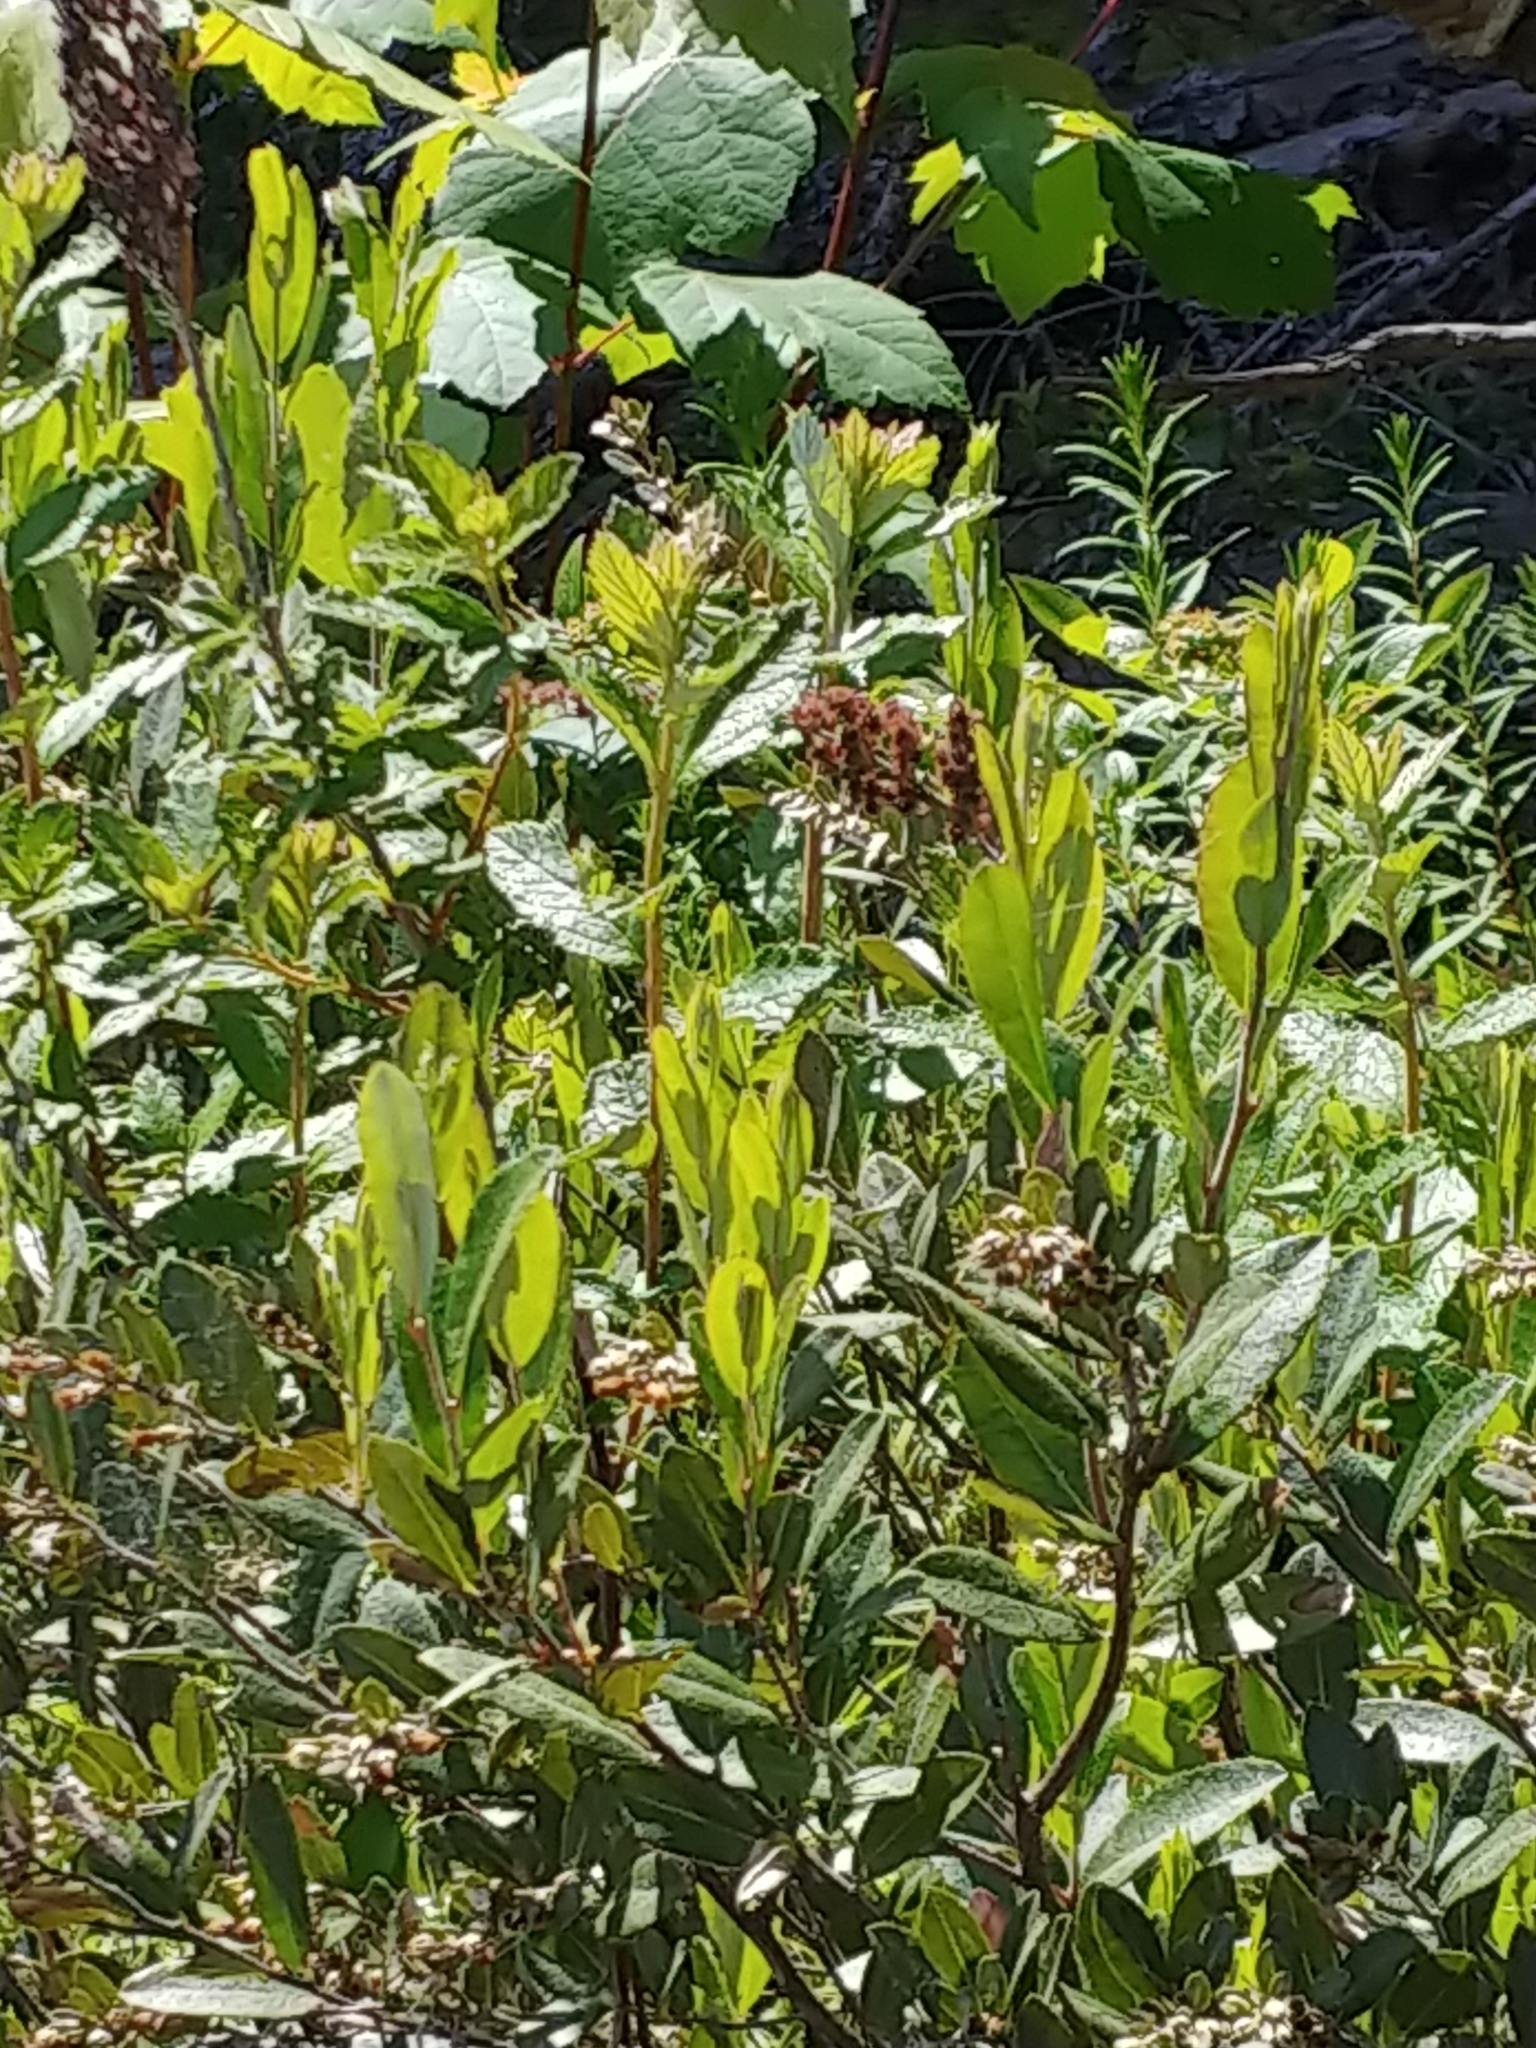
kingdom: Plantae
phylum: Tracheophyta
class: Magnoliopsida
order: Ericales
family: Ericaceae
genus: Chamaedaphne
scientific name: Chamaedaphne calyculata
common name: Leatherleaf
